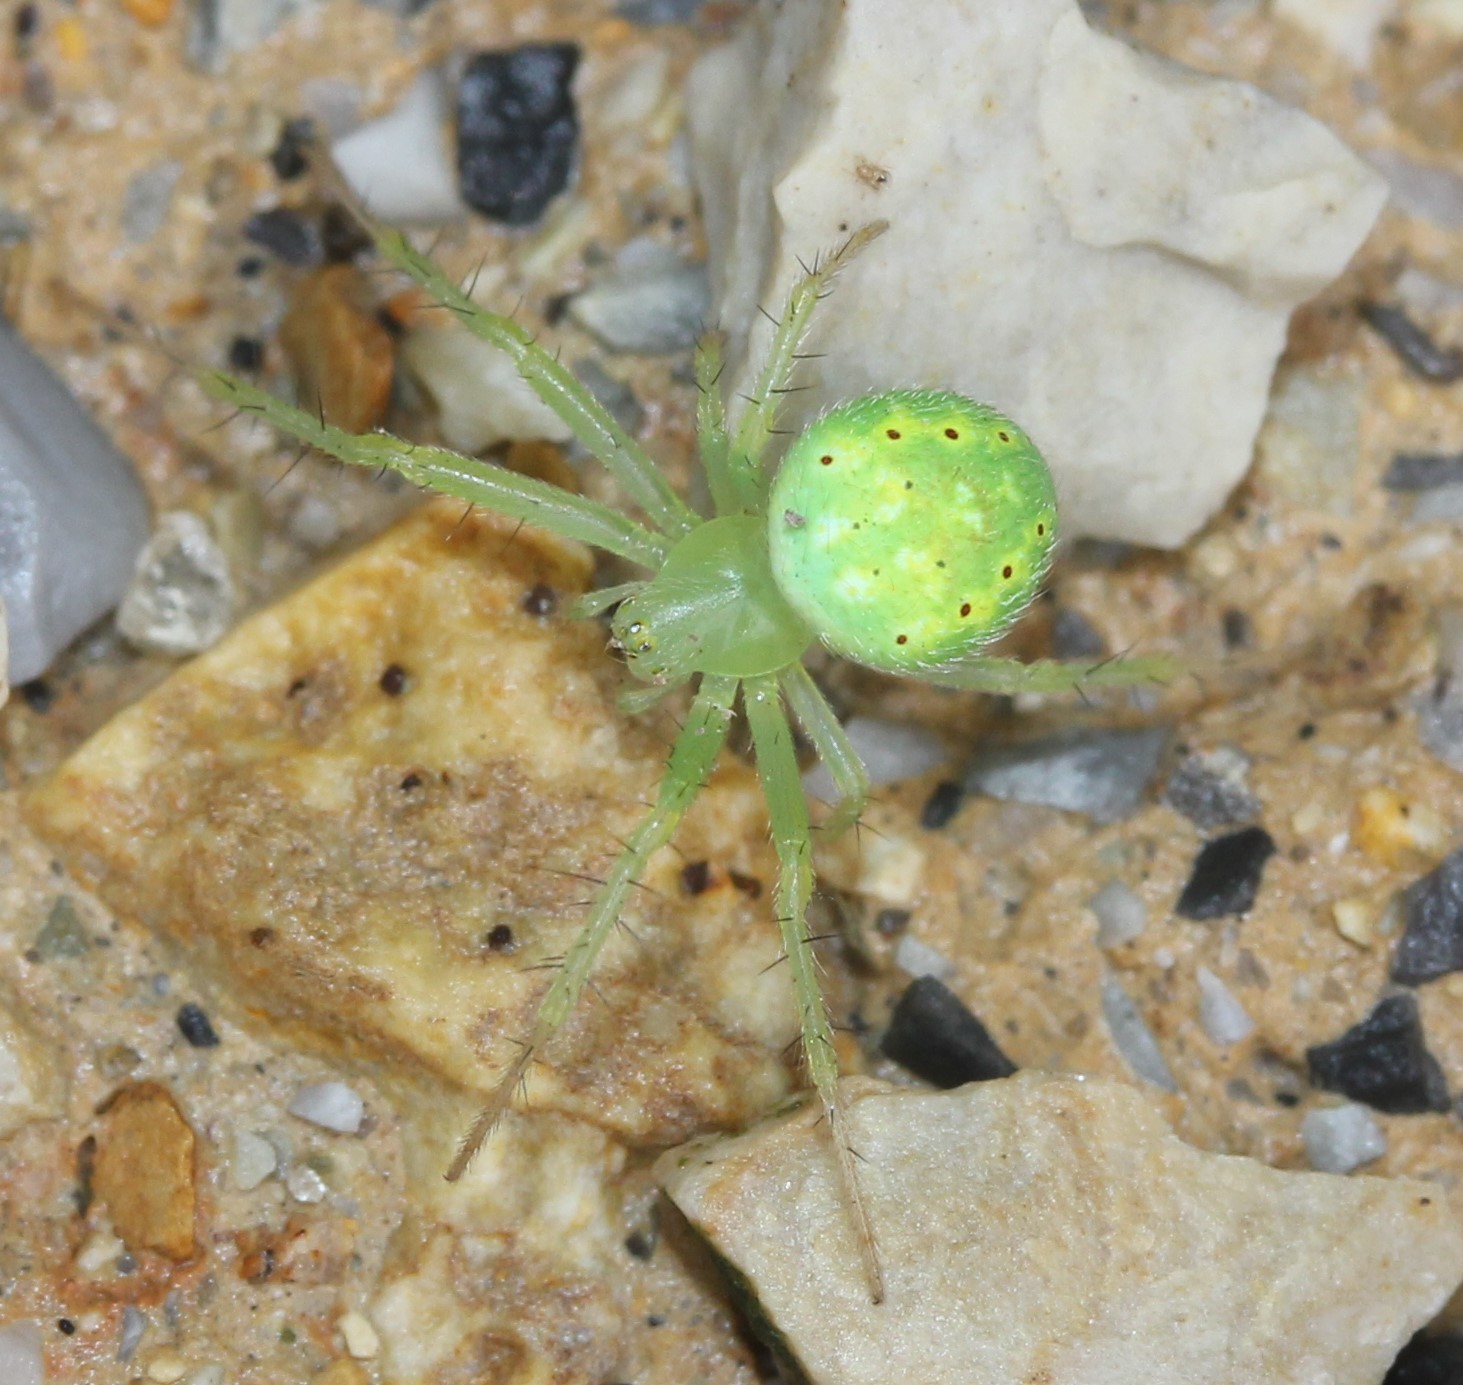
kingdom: Animalia
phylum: Arthropoda
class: Arachnida
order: Araneae
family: Araneidae
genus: Araneus
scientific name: Araneus cingulatus
